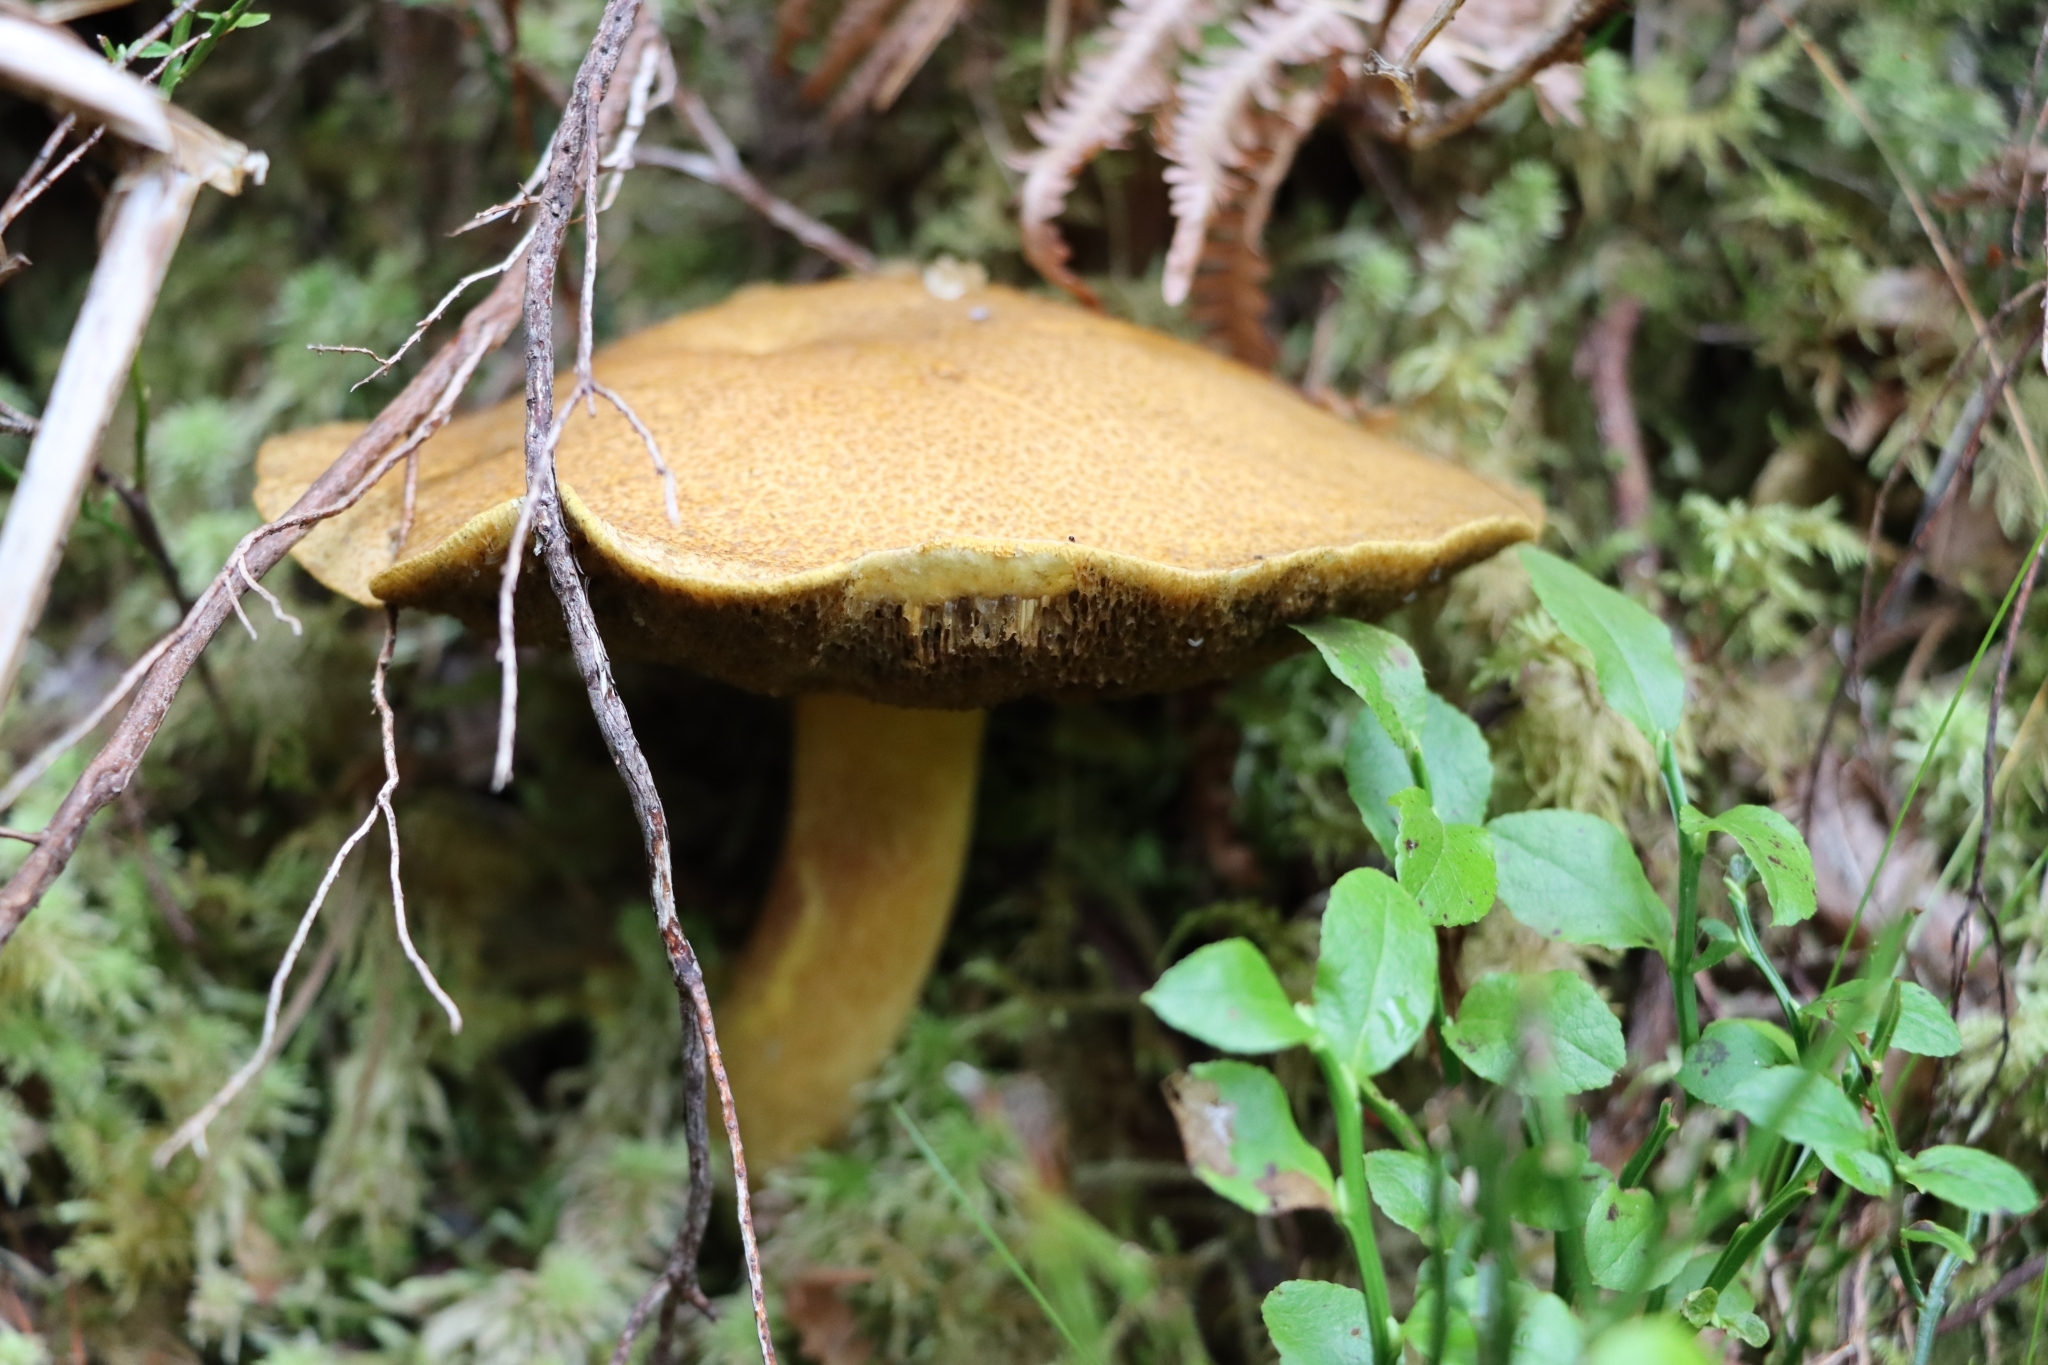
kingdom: Fungi
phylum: Basidiomycota
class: Agaricomycetes
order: Boletales
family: Suillaceae
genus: Suillus
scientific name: Suillus variegatus
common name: Velvet bolete
